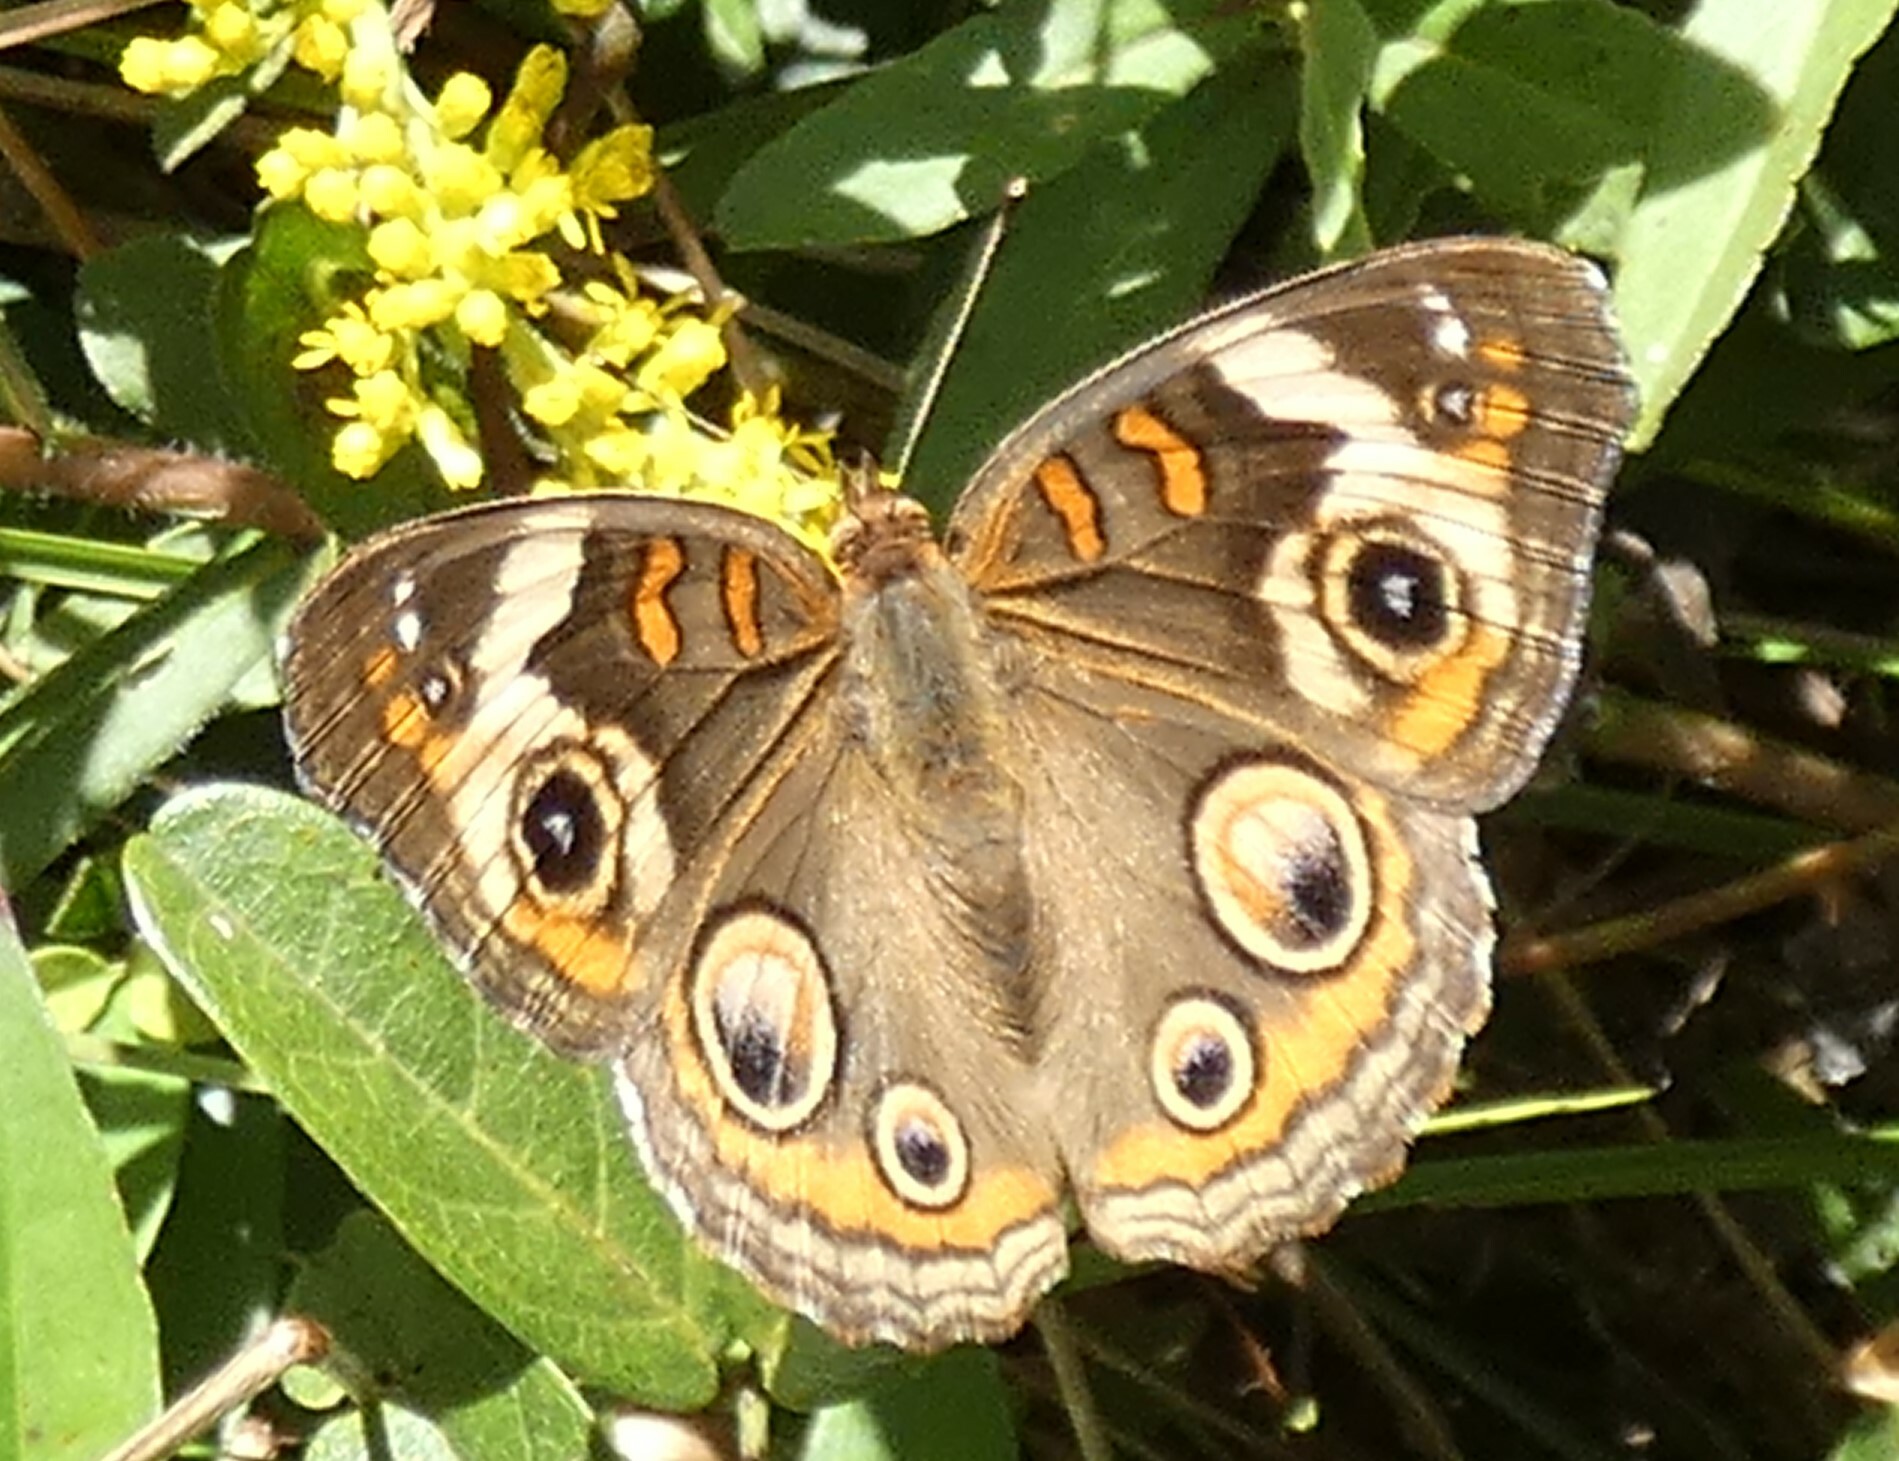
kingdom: Animalia
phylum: Arthropoda
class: Insecta
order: Lepidoptera
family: Nymphalidae
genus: Junonia
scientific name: Junonia coenia
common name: Common buckeye
